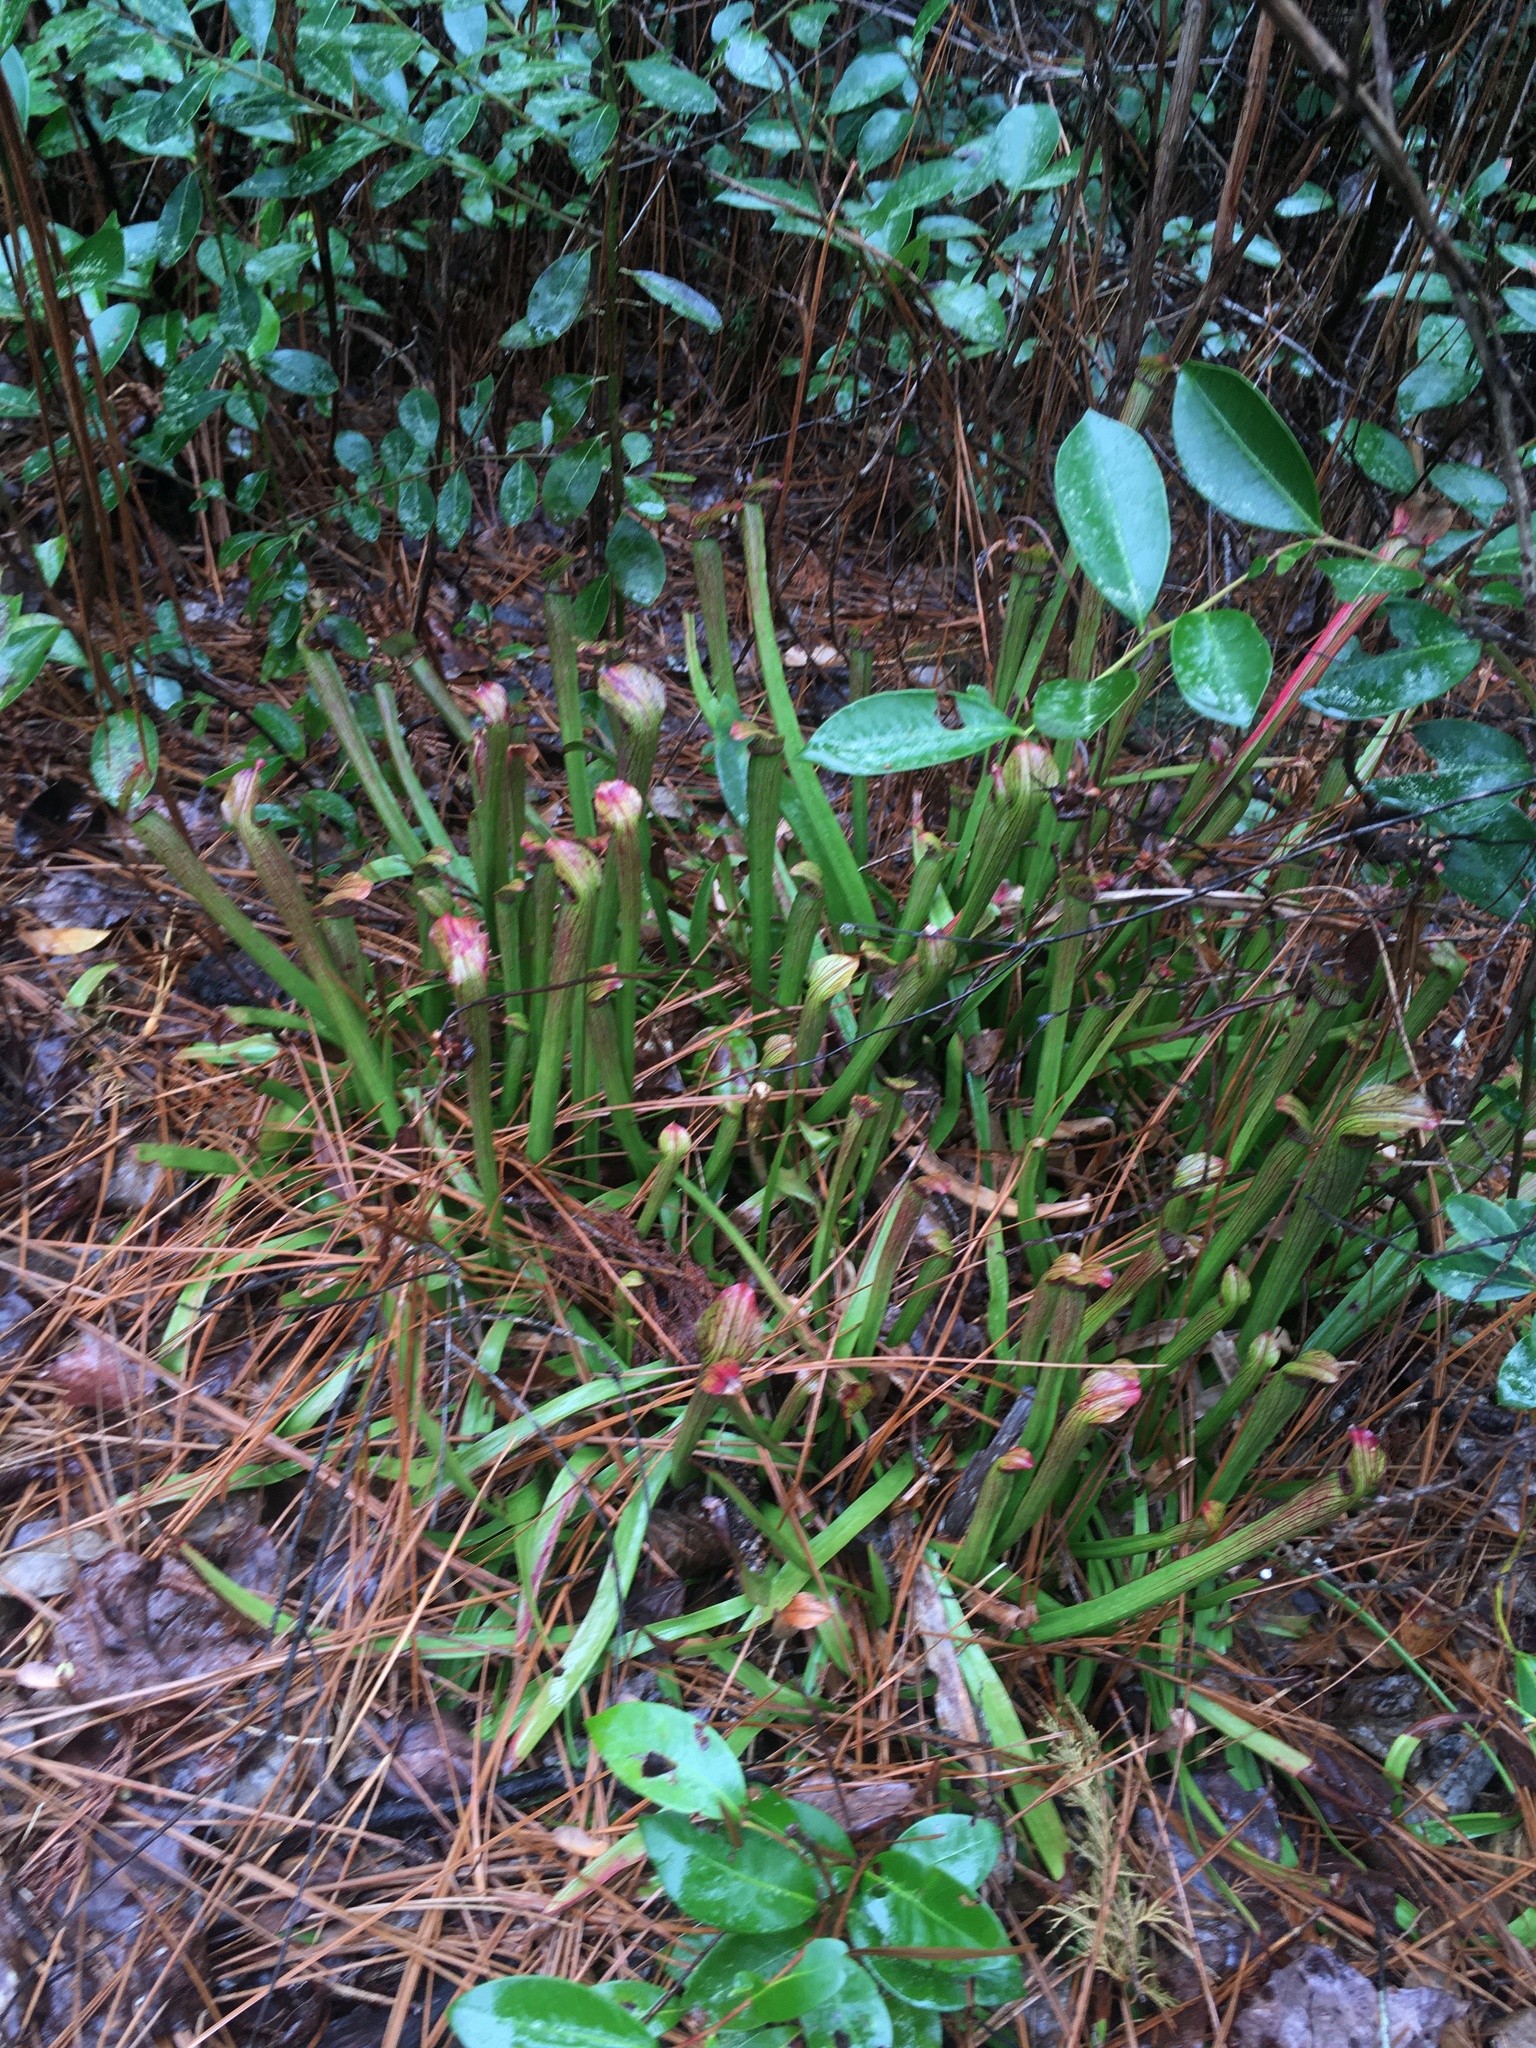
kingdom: Plantae
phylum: Tracheophyta
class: Magnoliopsida
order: Ericales
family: Sarraceniaceae
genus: Sarracenia
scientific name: Sarracenia rubra
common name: Sweet pitcherplant
